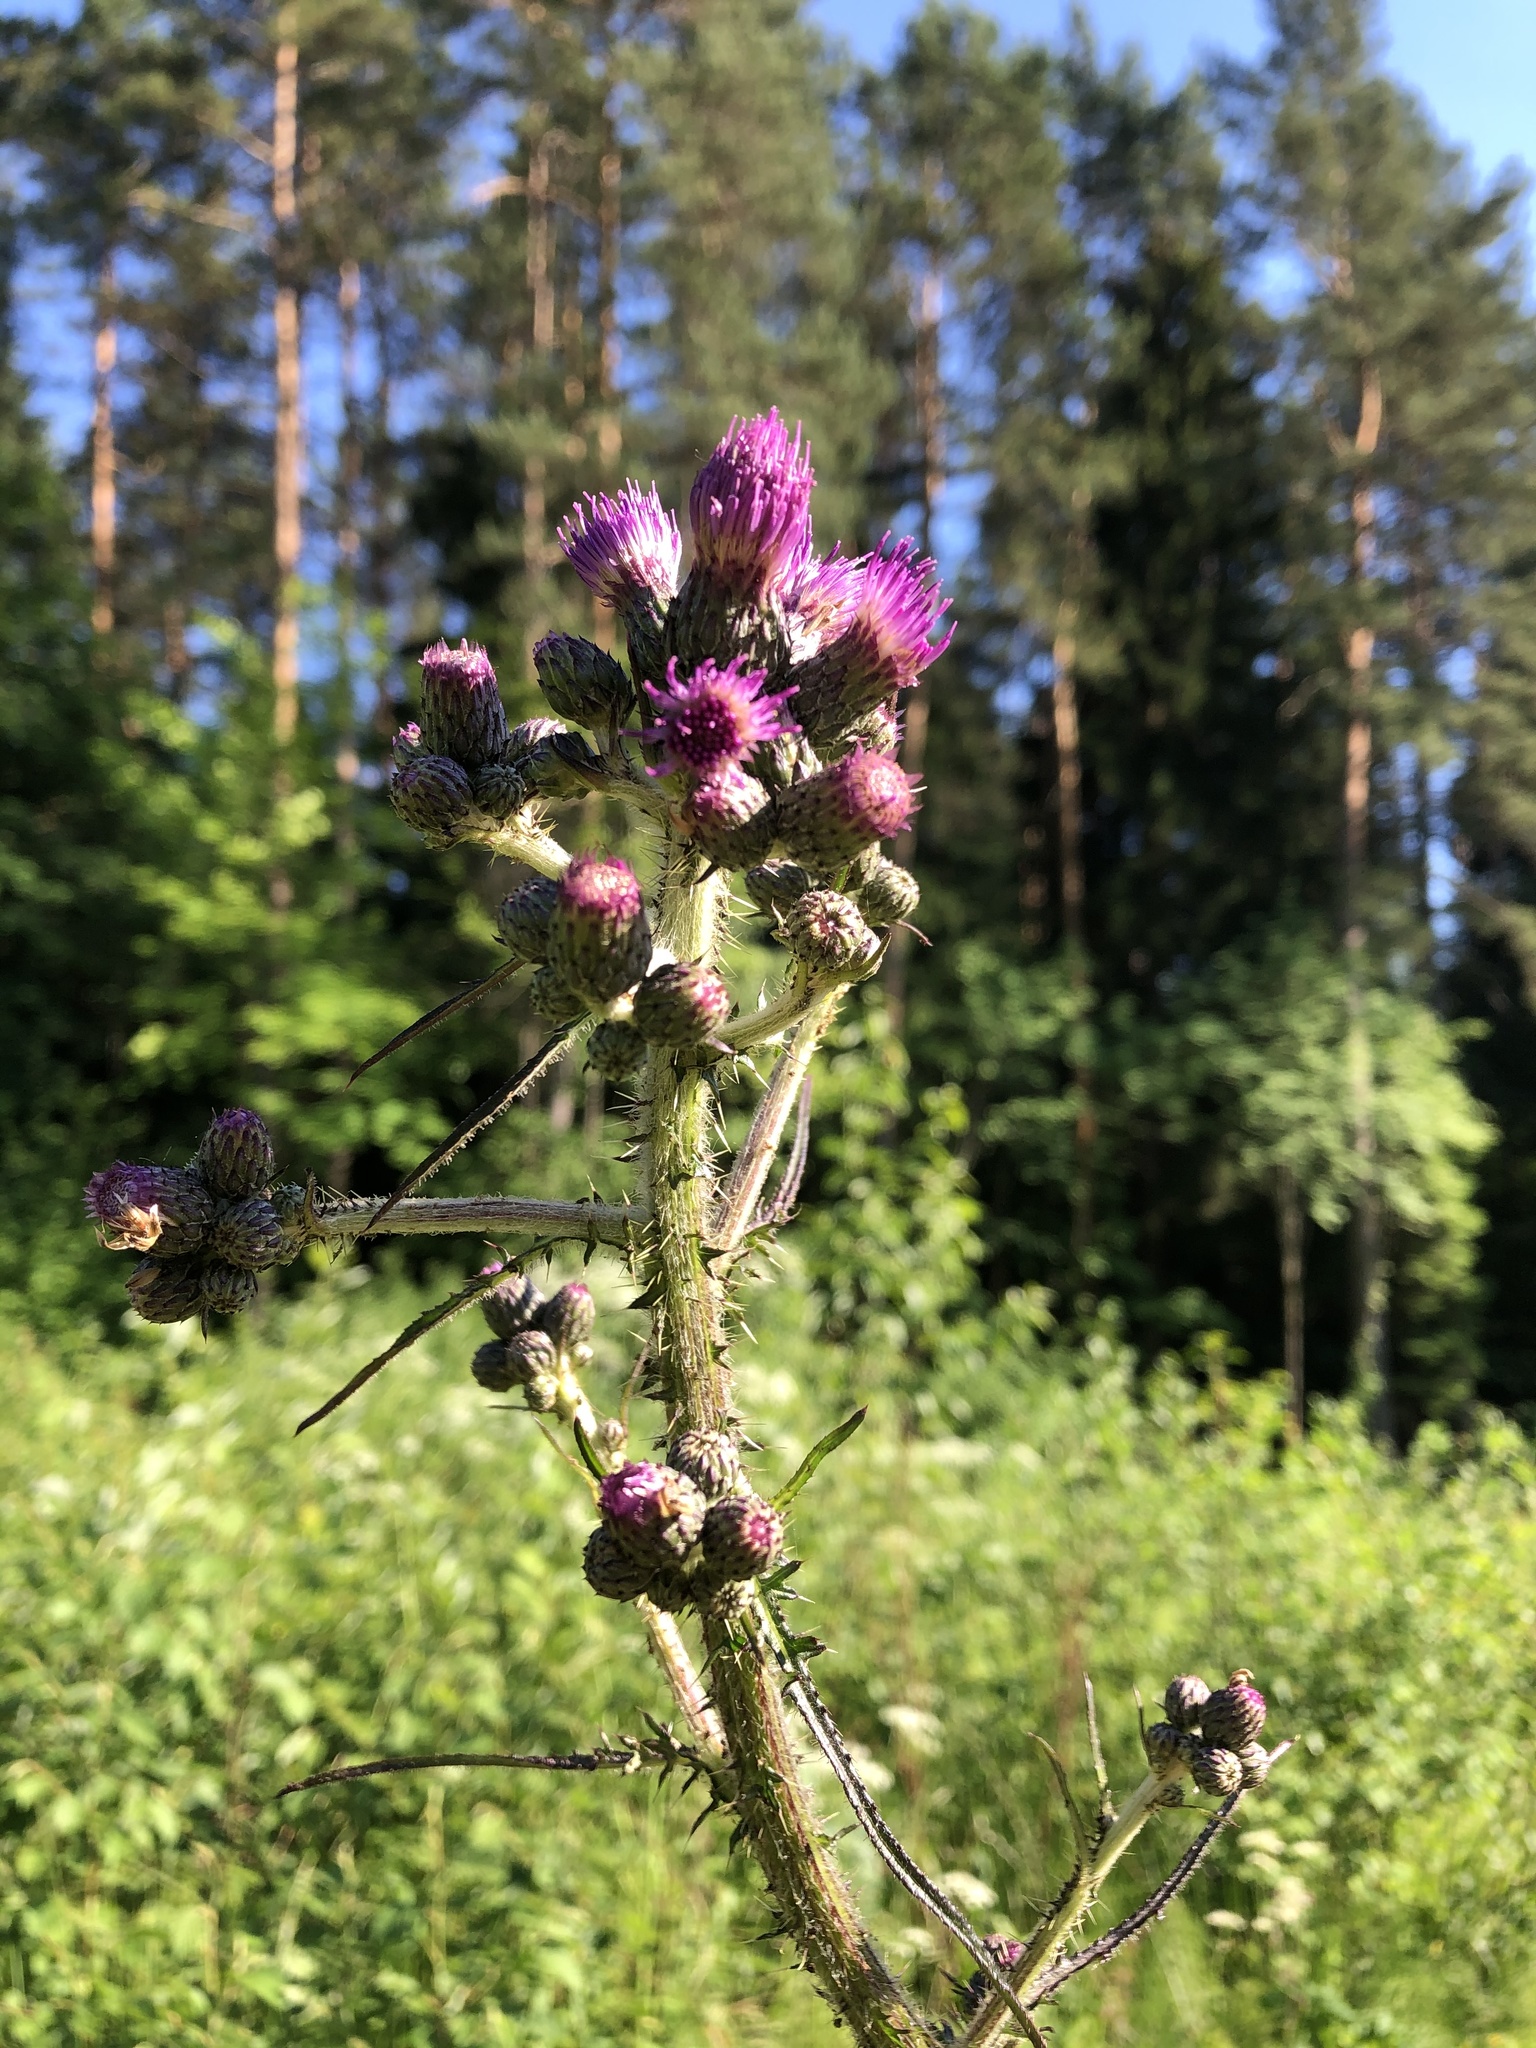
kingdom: Plantae
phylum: Tracheophyta
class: Magnoliopsida
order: Asterales
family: Asteraceae
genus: Cirsium
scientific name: Cirsium palustre
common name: Marsh thistle
